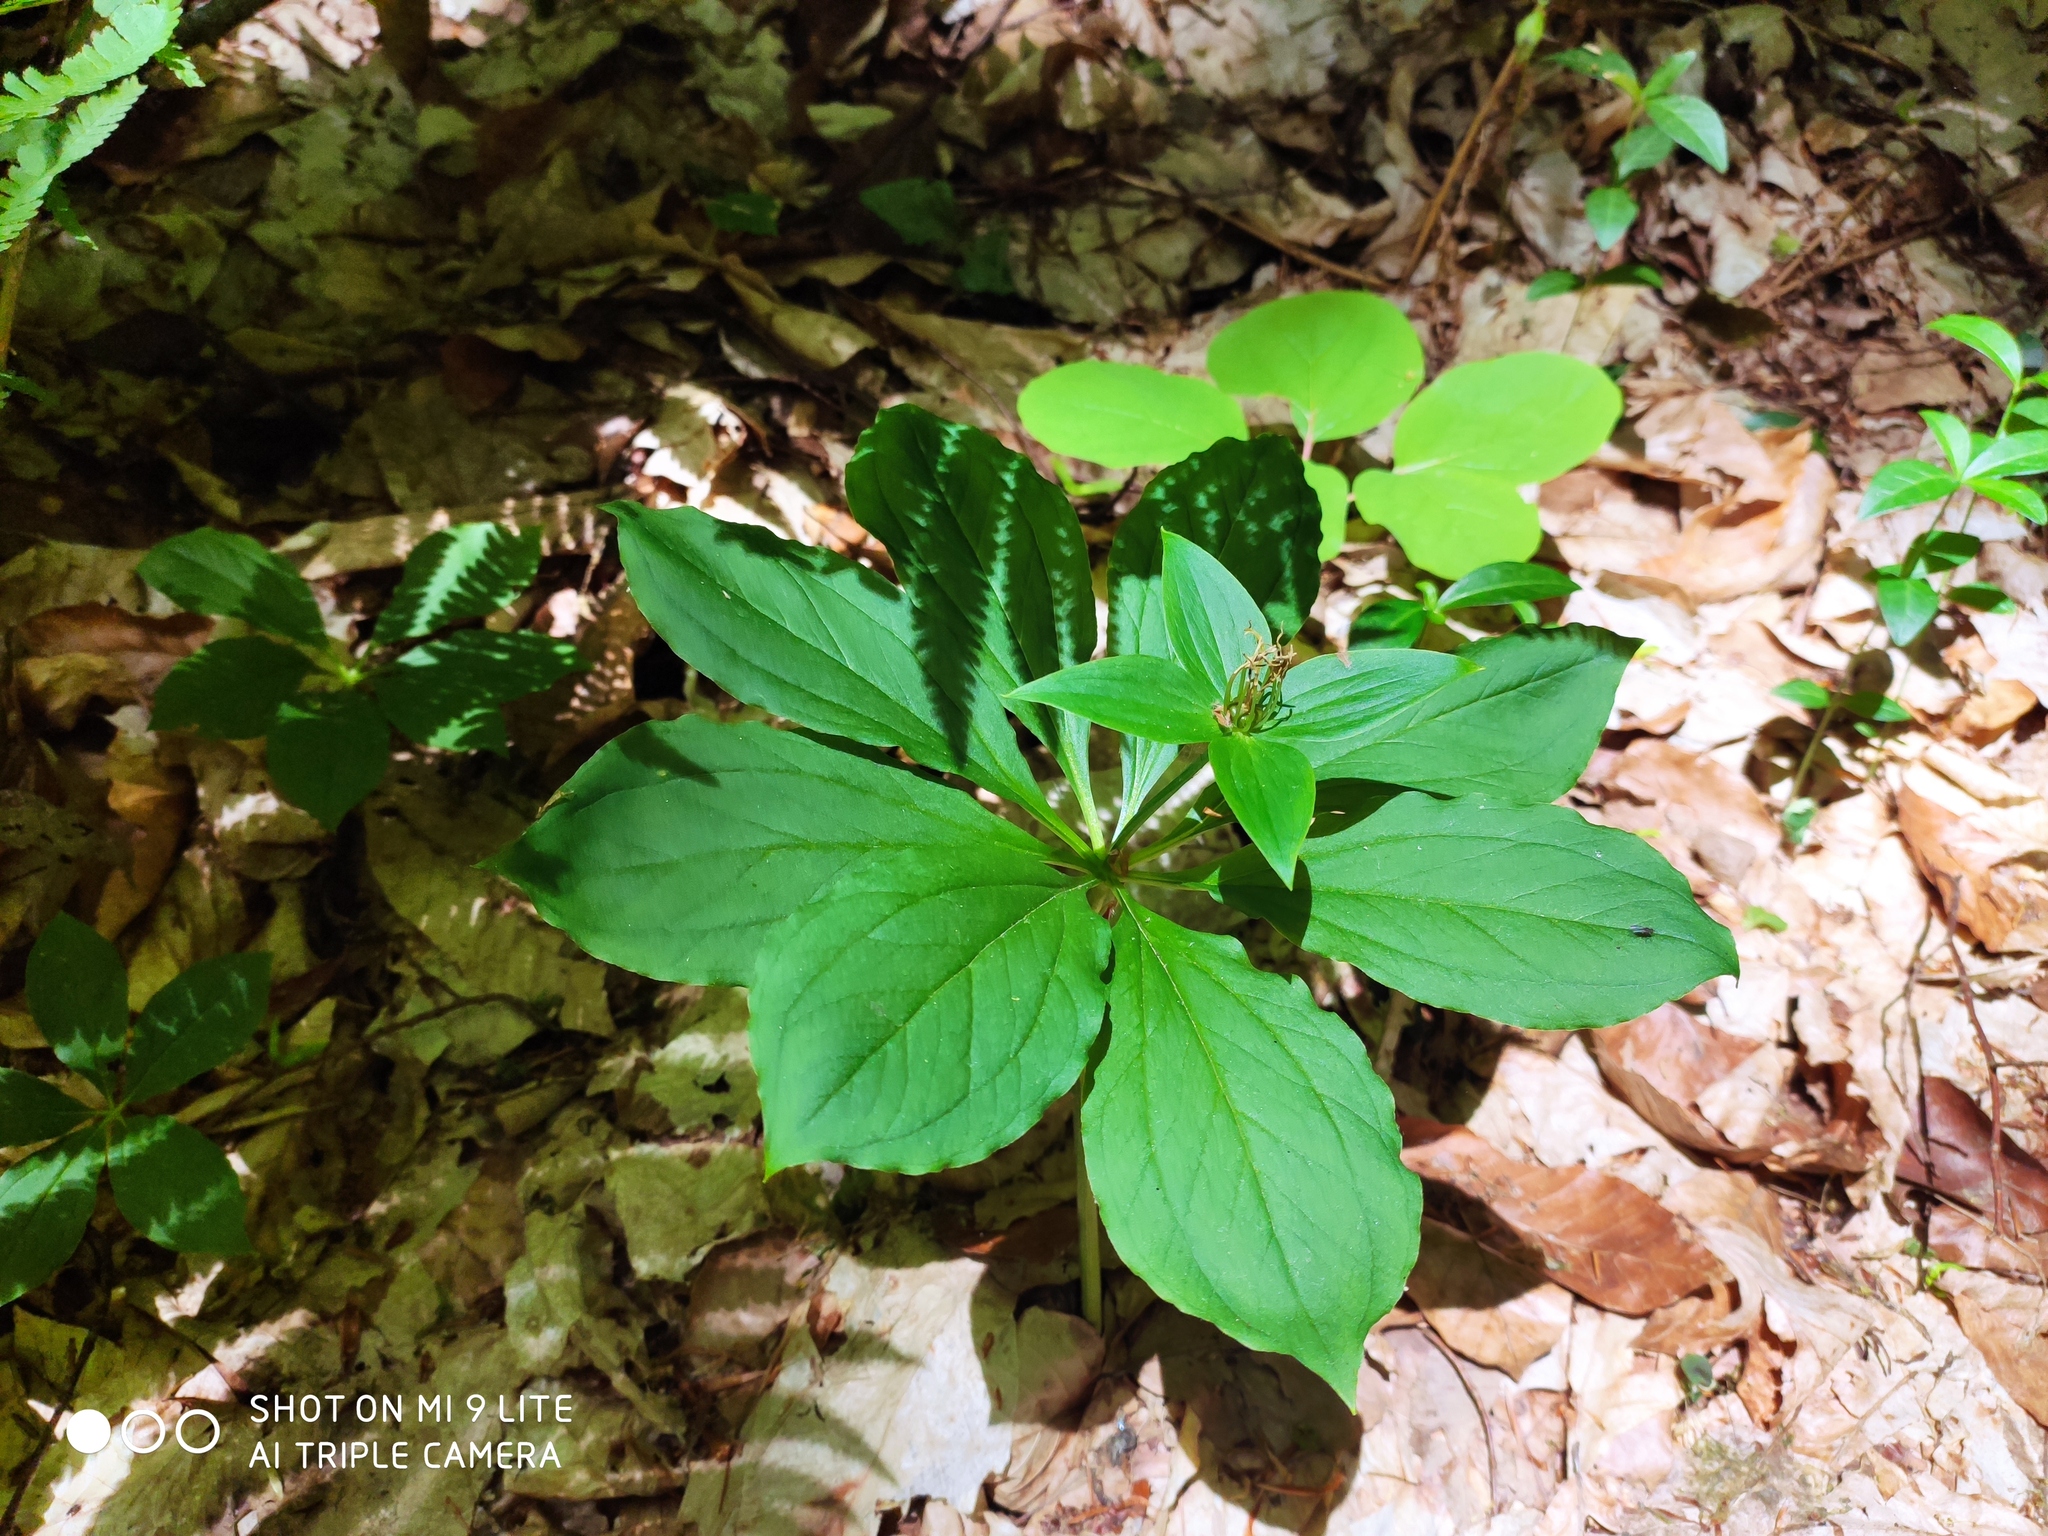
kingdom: Plantae
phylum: Tracheophyta
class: Liliopsida
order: Liliales
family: Melanthiaceae
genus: Paris
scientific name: Paris incompleta
